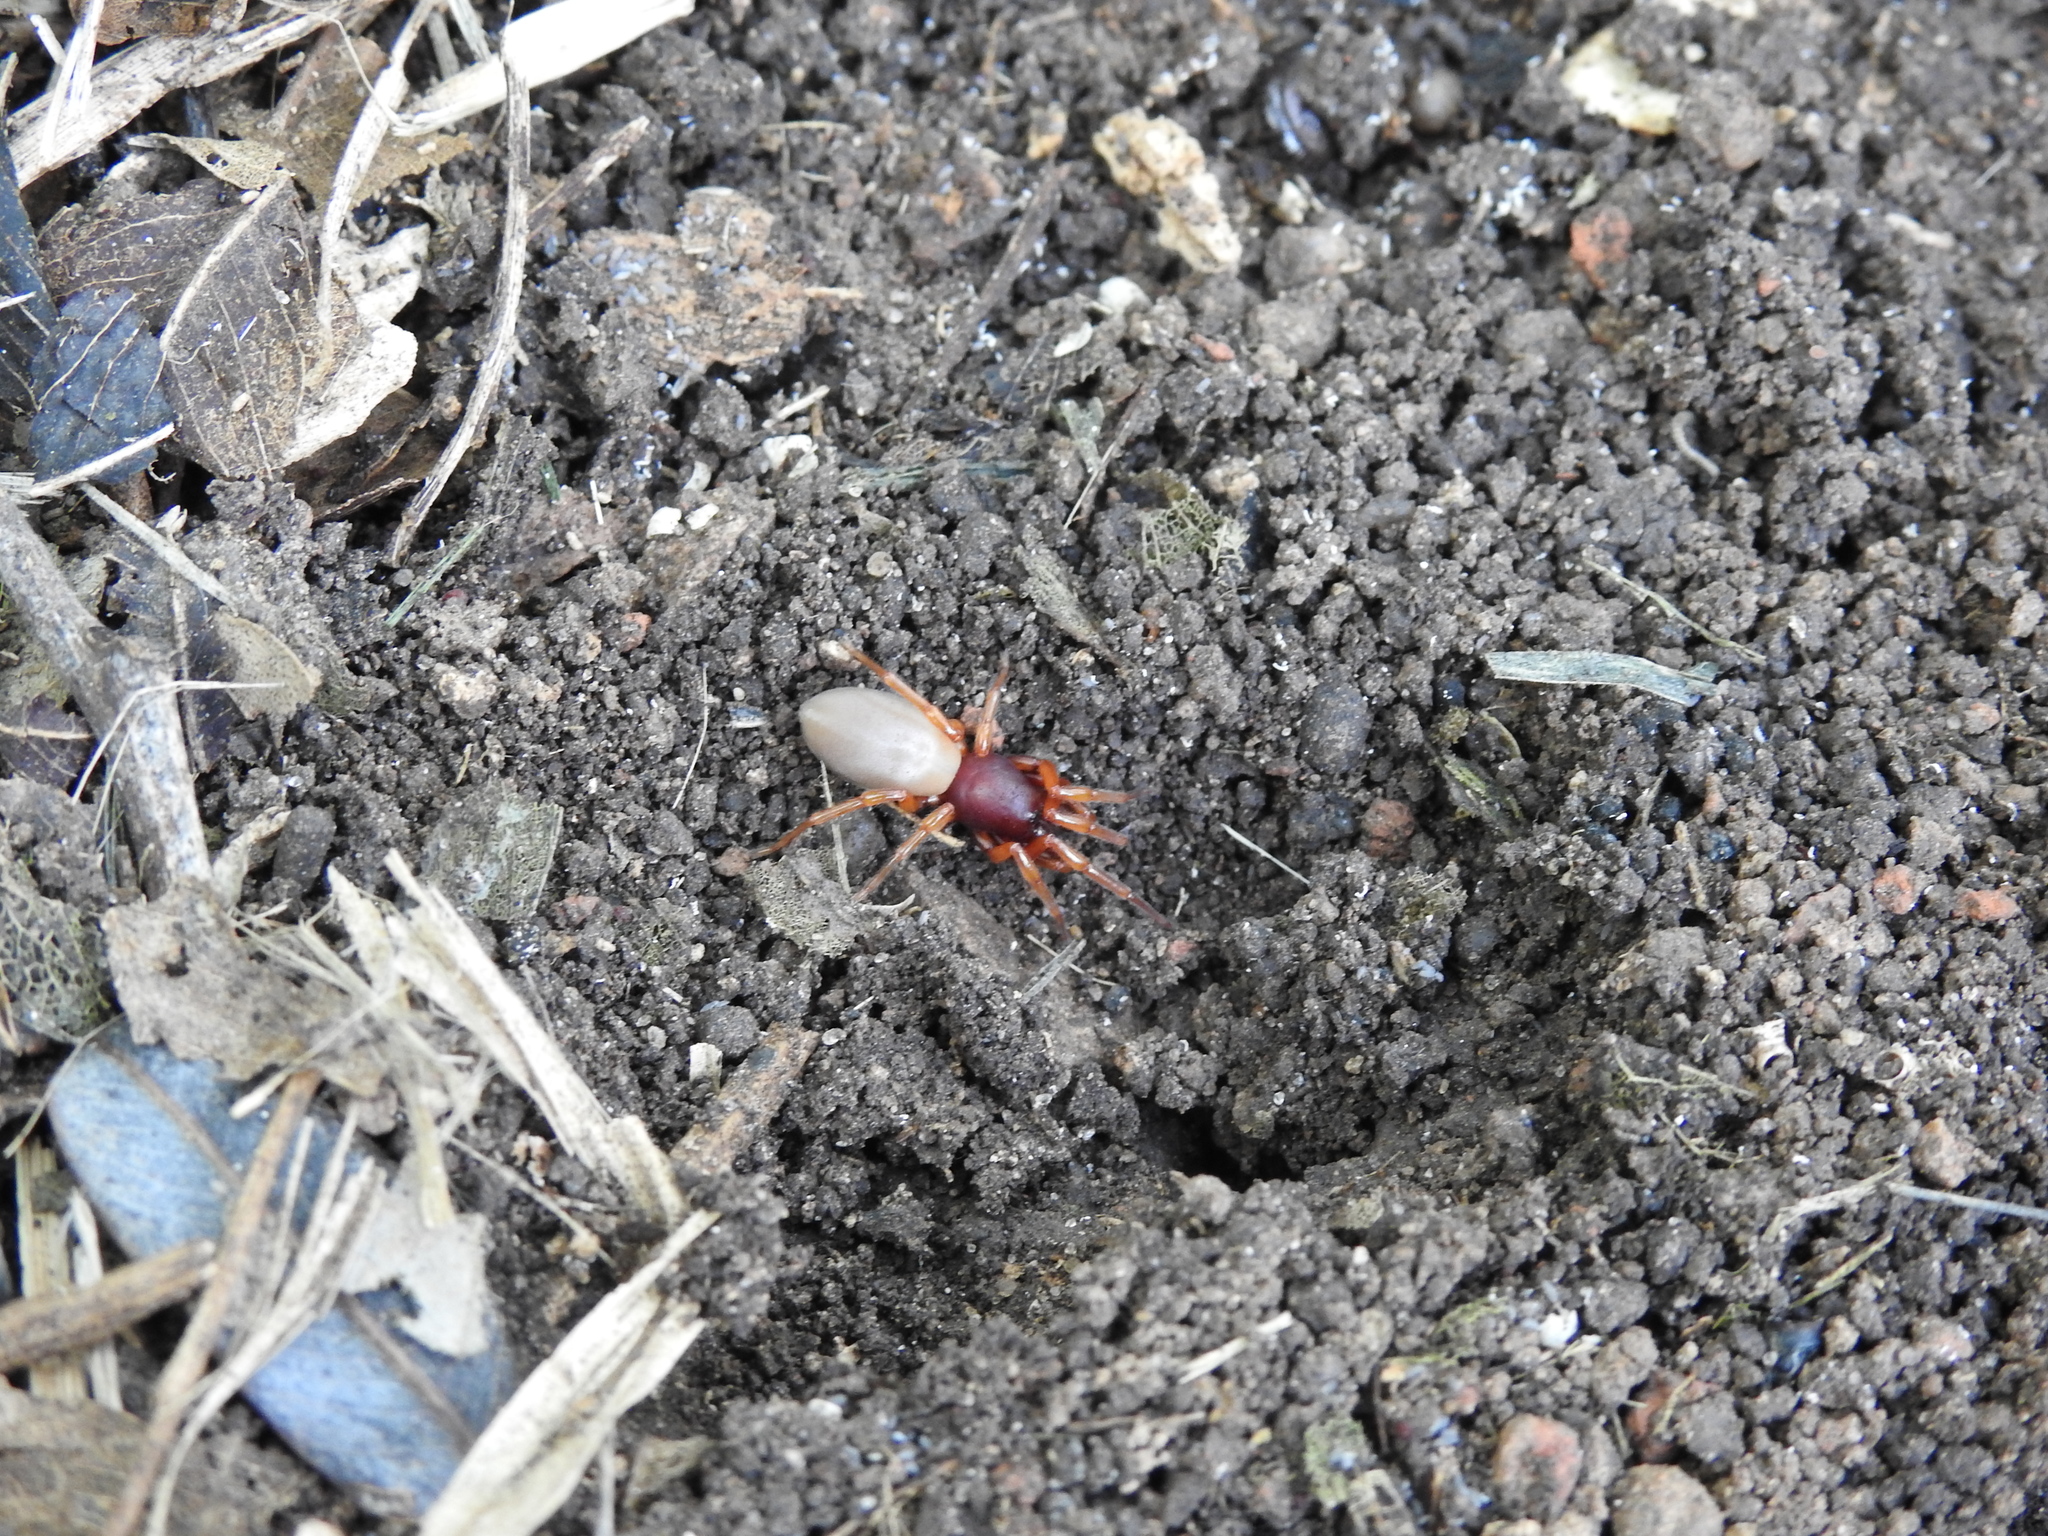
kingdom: Animalia
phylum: Arthropoda
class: Arachnida
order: Araneae
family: Dysderidae
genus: Dysdera
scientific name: Dysdera crocata
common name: Woodlouse spider
